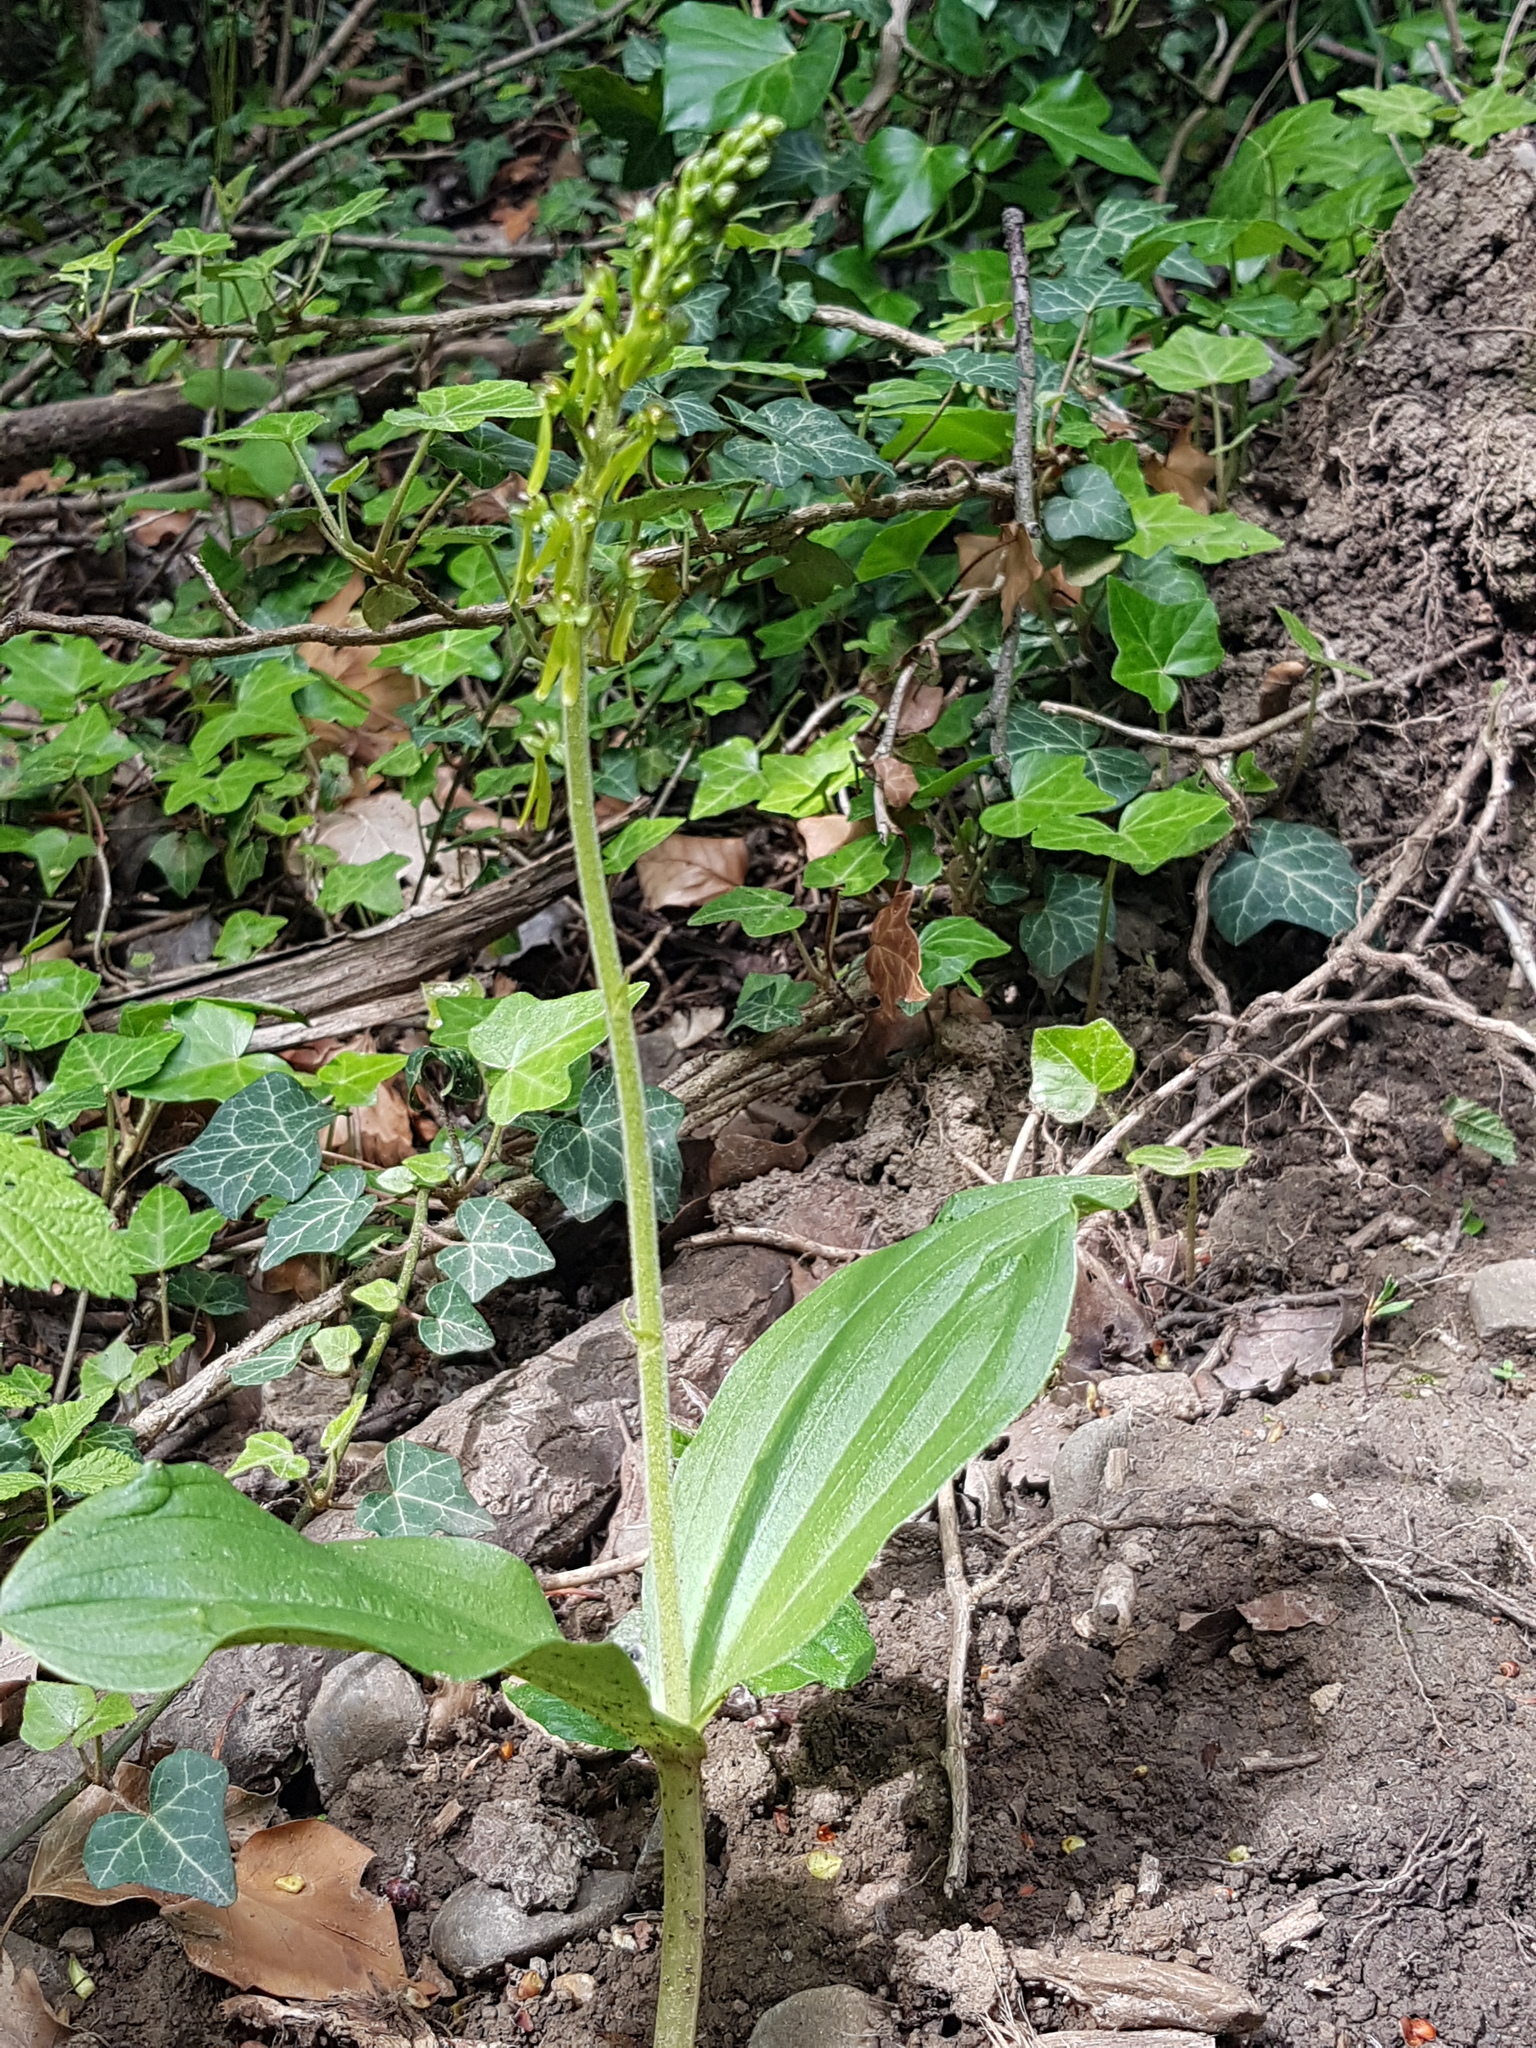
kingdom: Plantae
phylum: Tracheophyta
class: Liliopsida
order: Asparagales
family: Orchidaceae
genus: Neottia
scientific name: Neottia ovata
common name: Common twayblade
